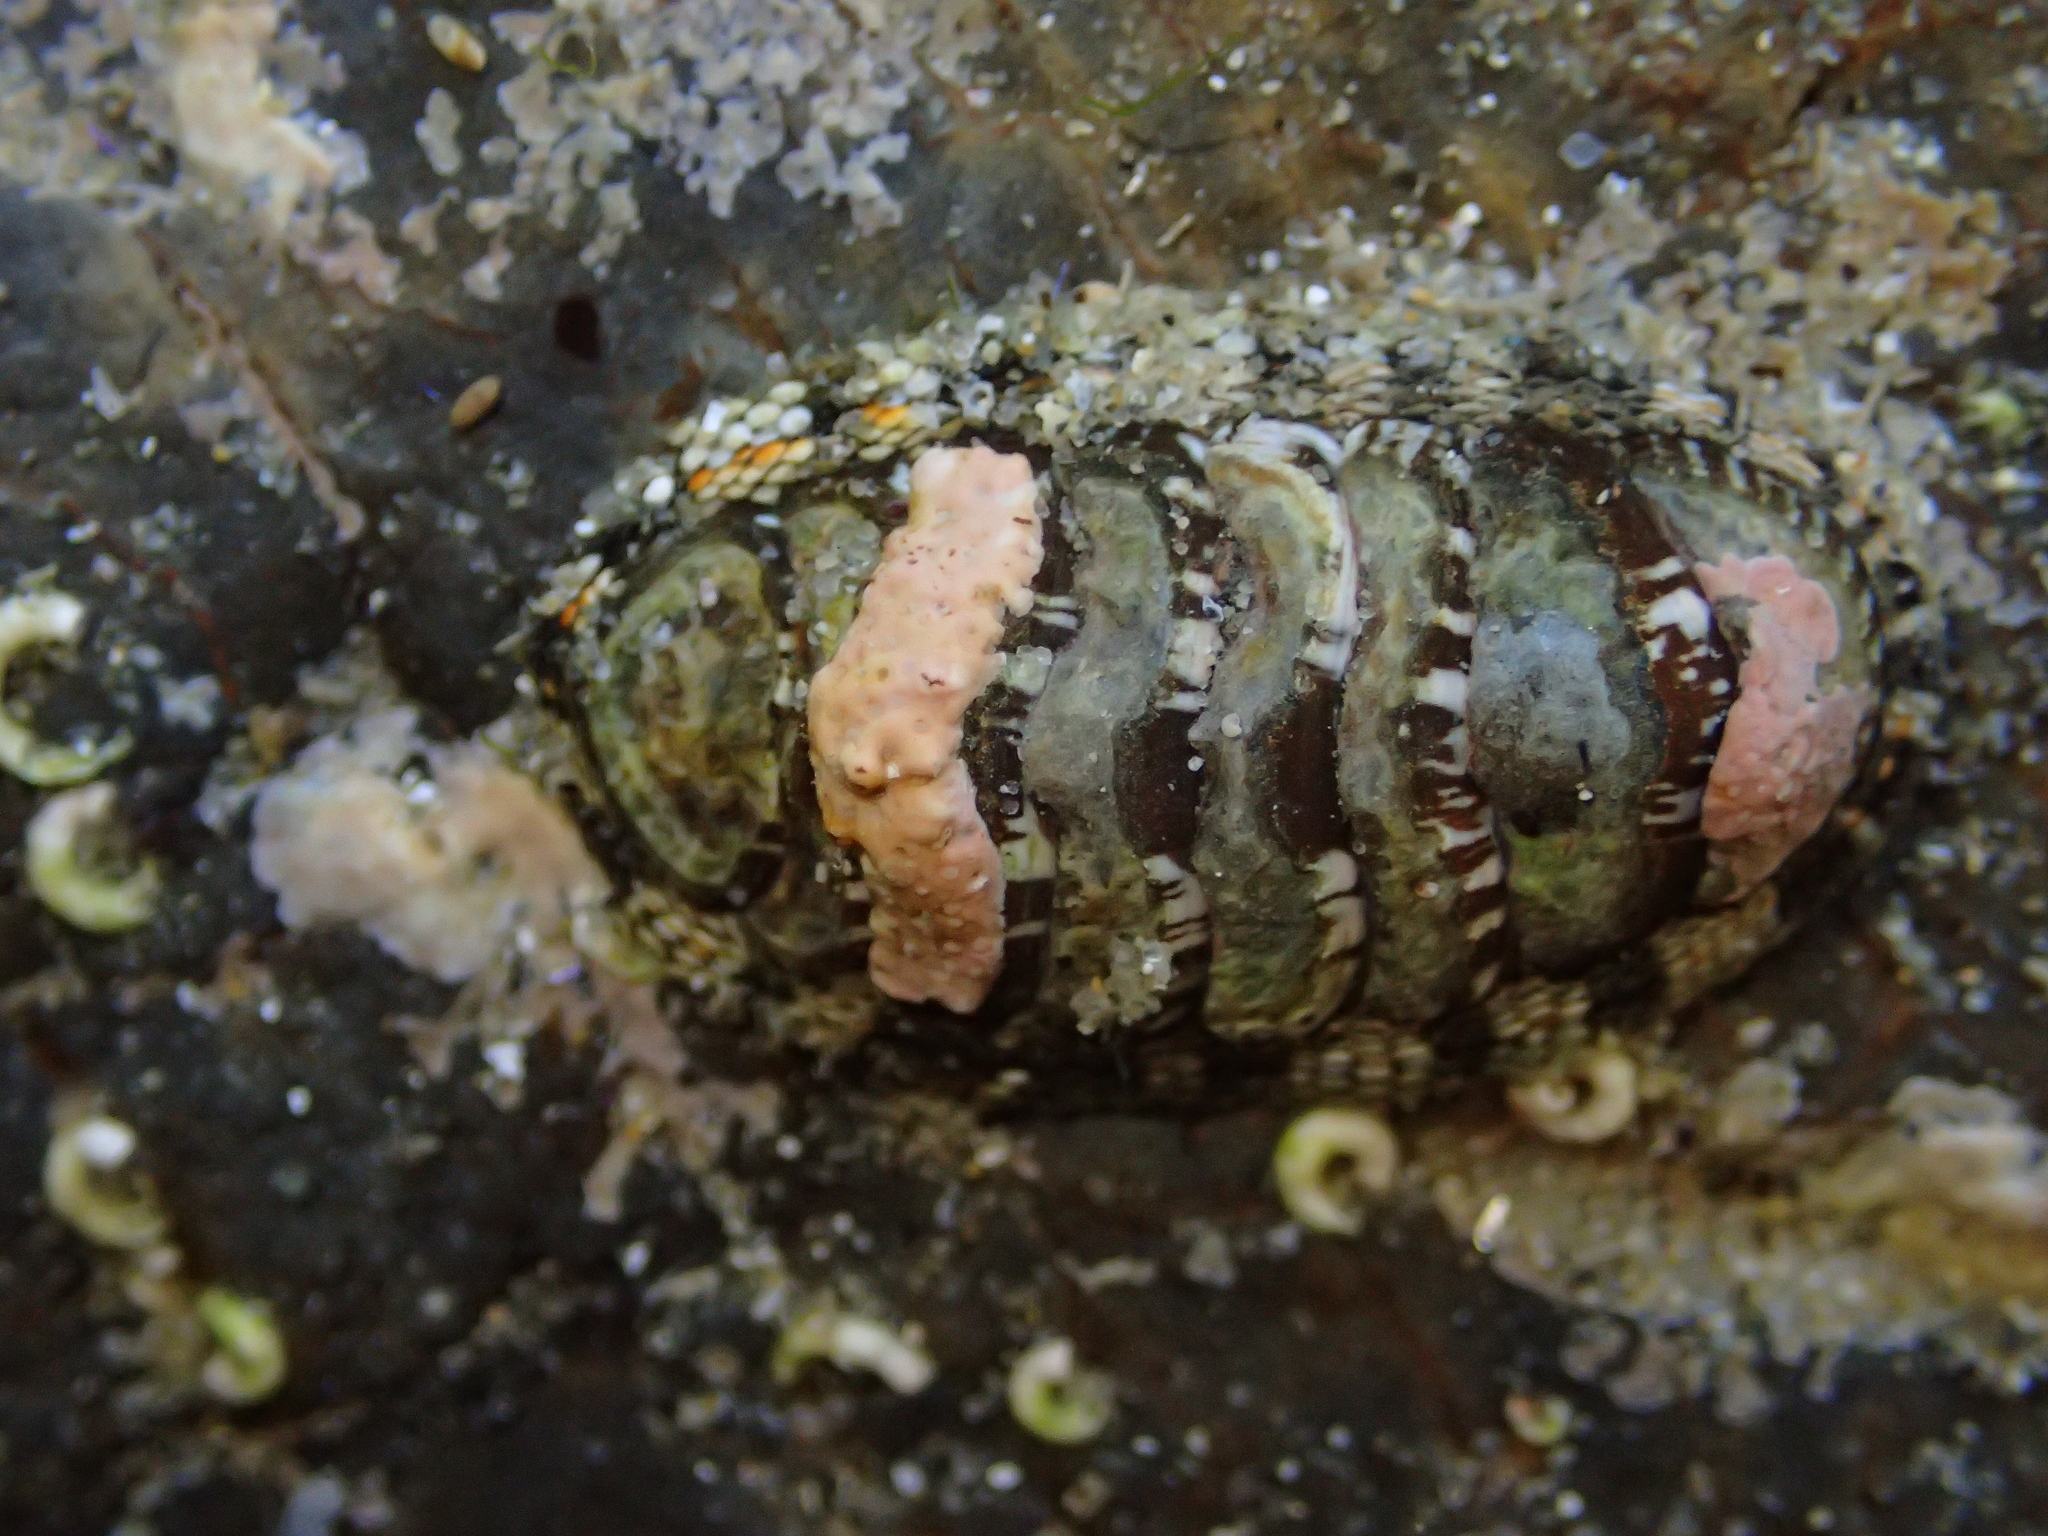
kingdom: Animalia
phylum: Mollusca
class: Polyplacophora
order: Chitonida
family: Chitonidae
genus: Sypharochiton
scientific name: Sypharochiton sinclairi
